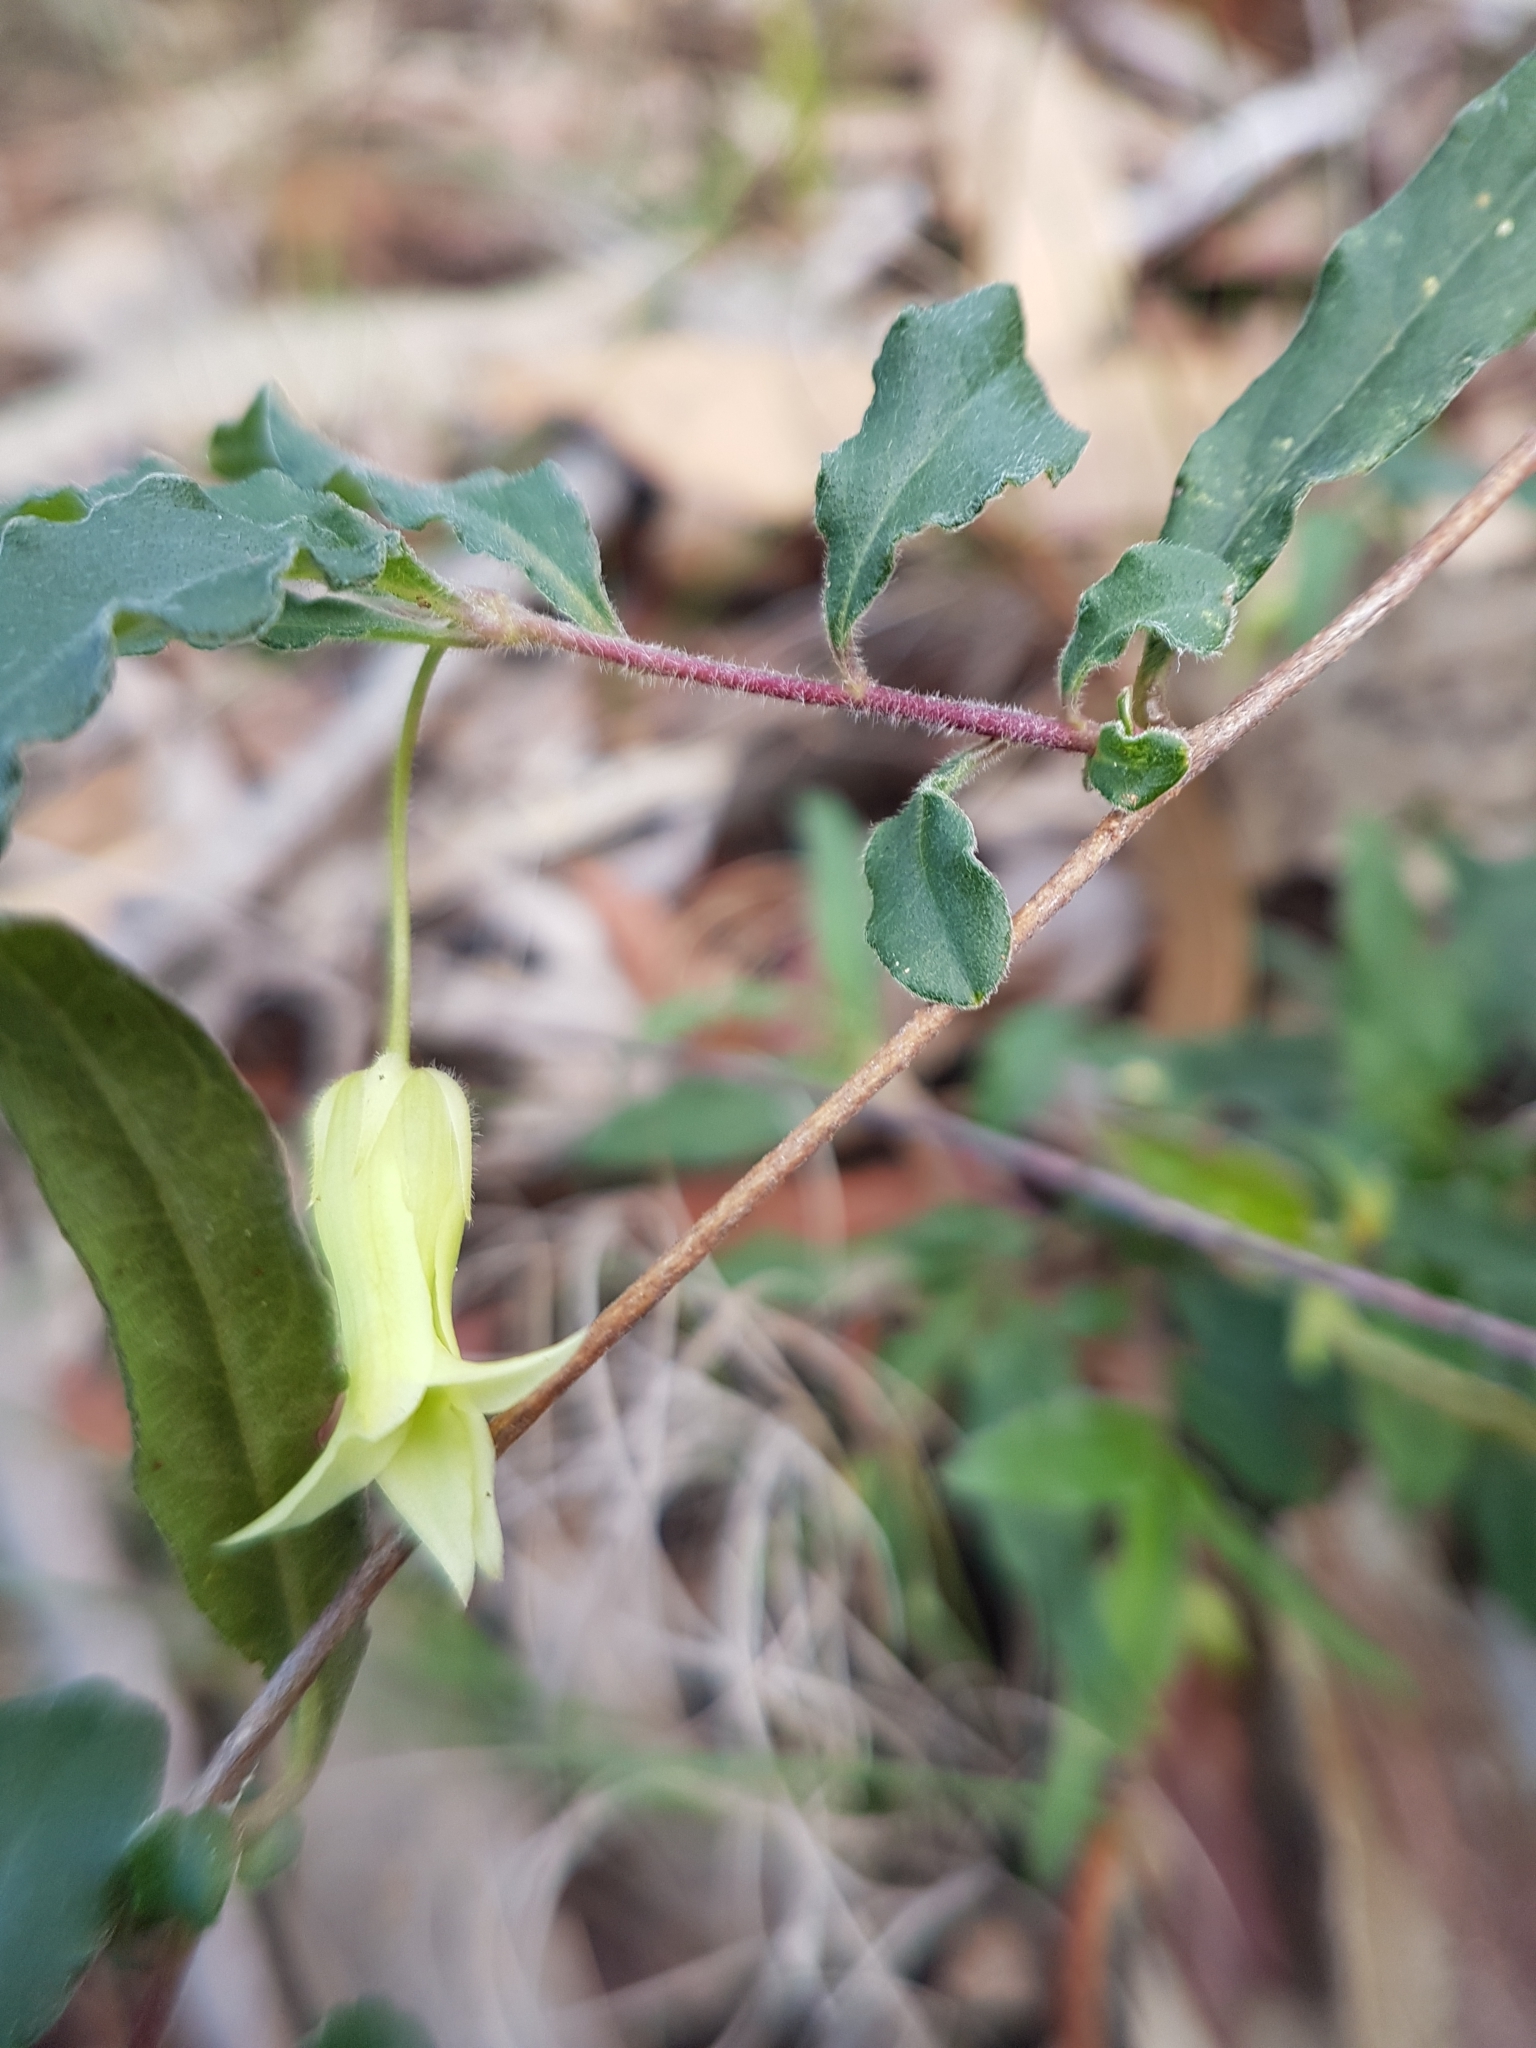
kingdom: Plantae
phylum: Tracheophyta
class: Magnoliopsida
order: Apiales
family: Pittosporaceae
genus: Billardiera
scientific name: Billardiera mutabilis
